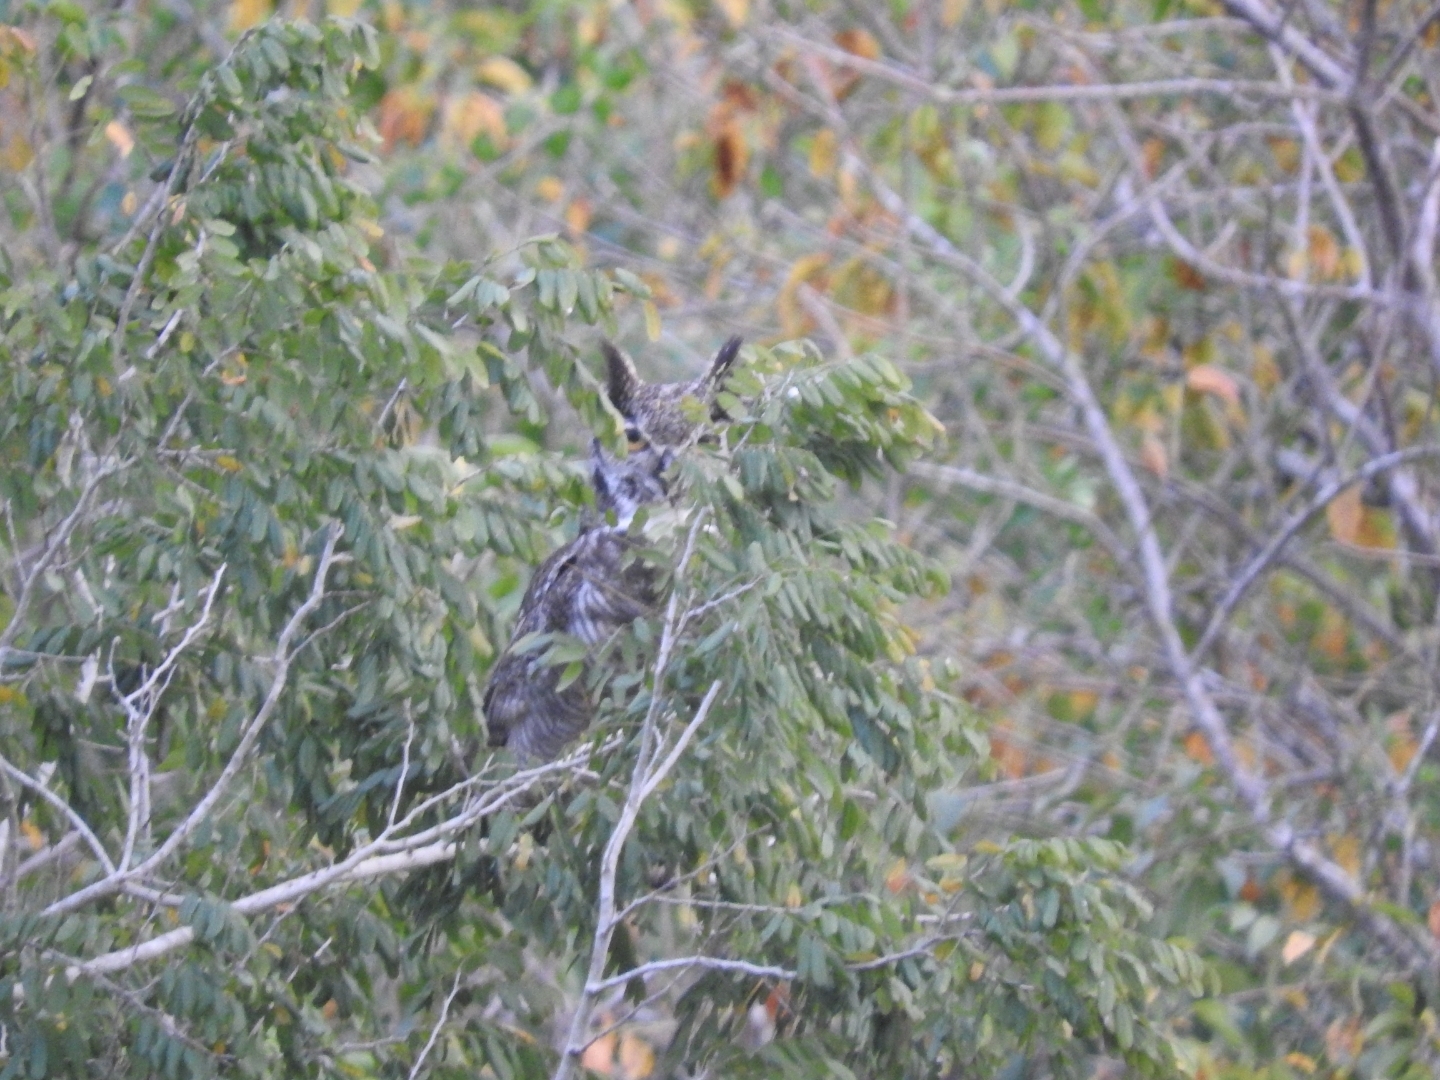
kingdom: Animalia
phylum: Chordata
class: Aves
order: Strigiformes
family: Strigidae
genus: Bubo
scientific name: Bubo virginianus
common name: Great horned owl
